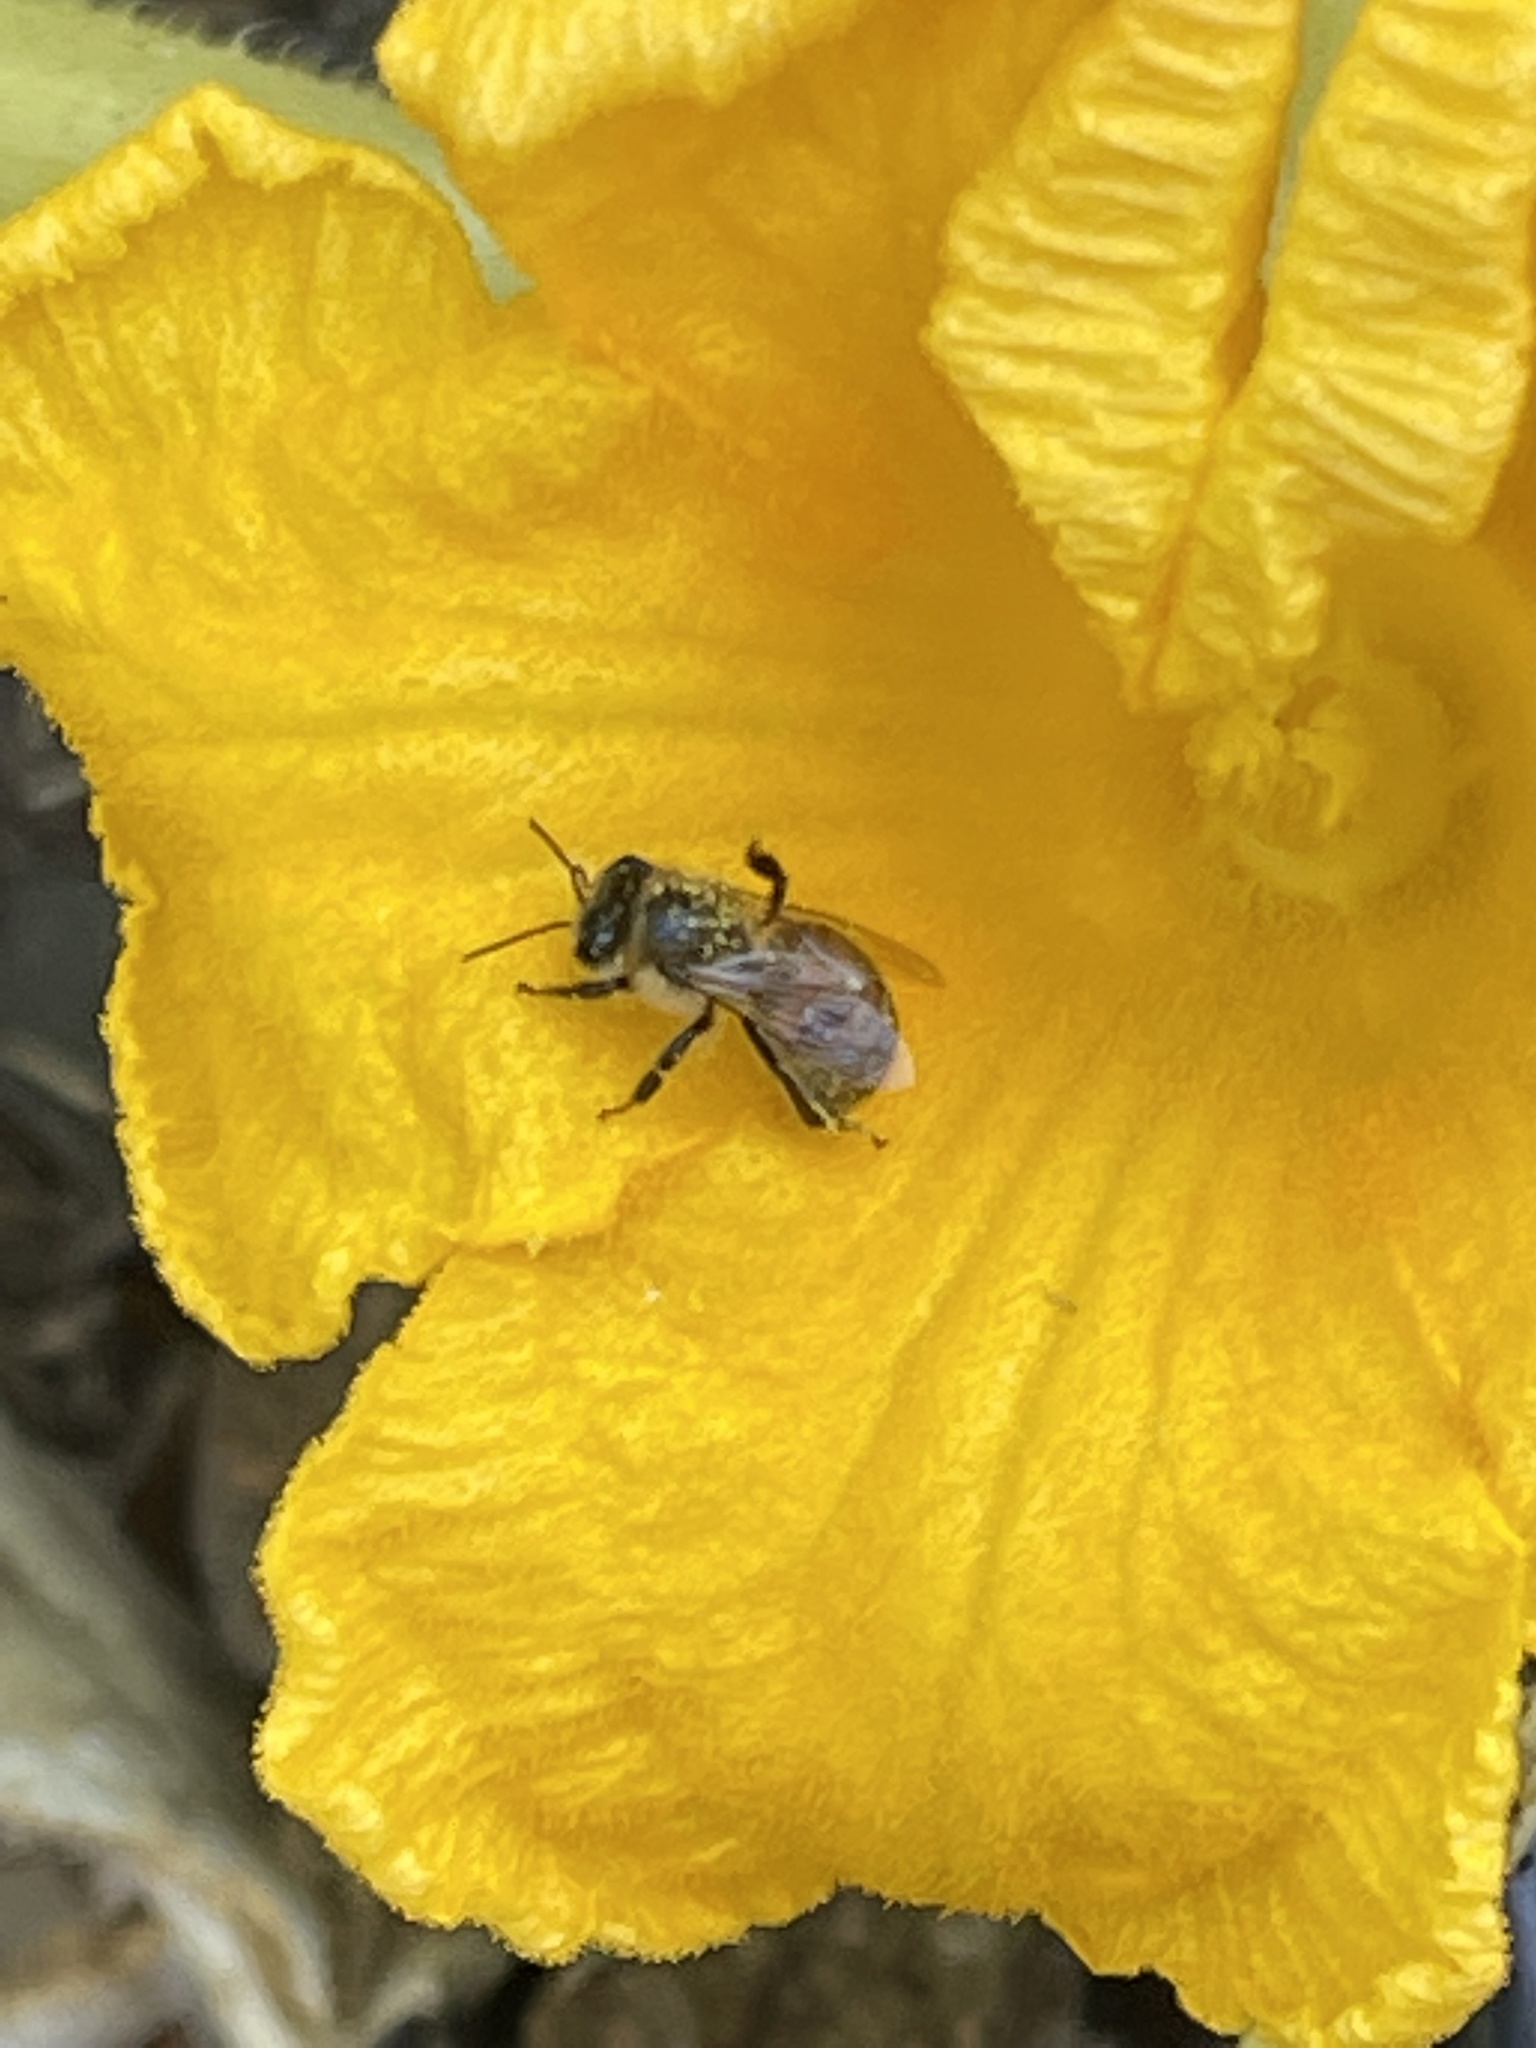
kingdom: Animalia
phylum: Arthropoda
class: Insecta
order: Hymenoptera
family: Apidae
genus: Apis
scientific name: Apis mellifera
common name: Honey bee
